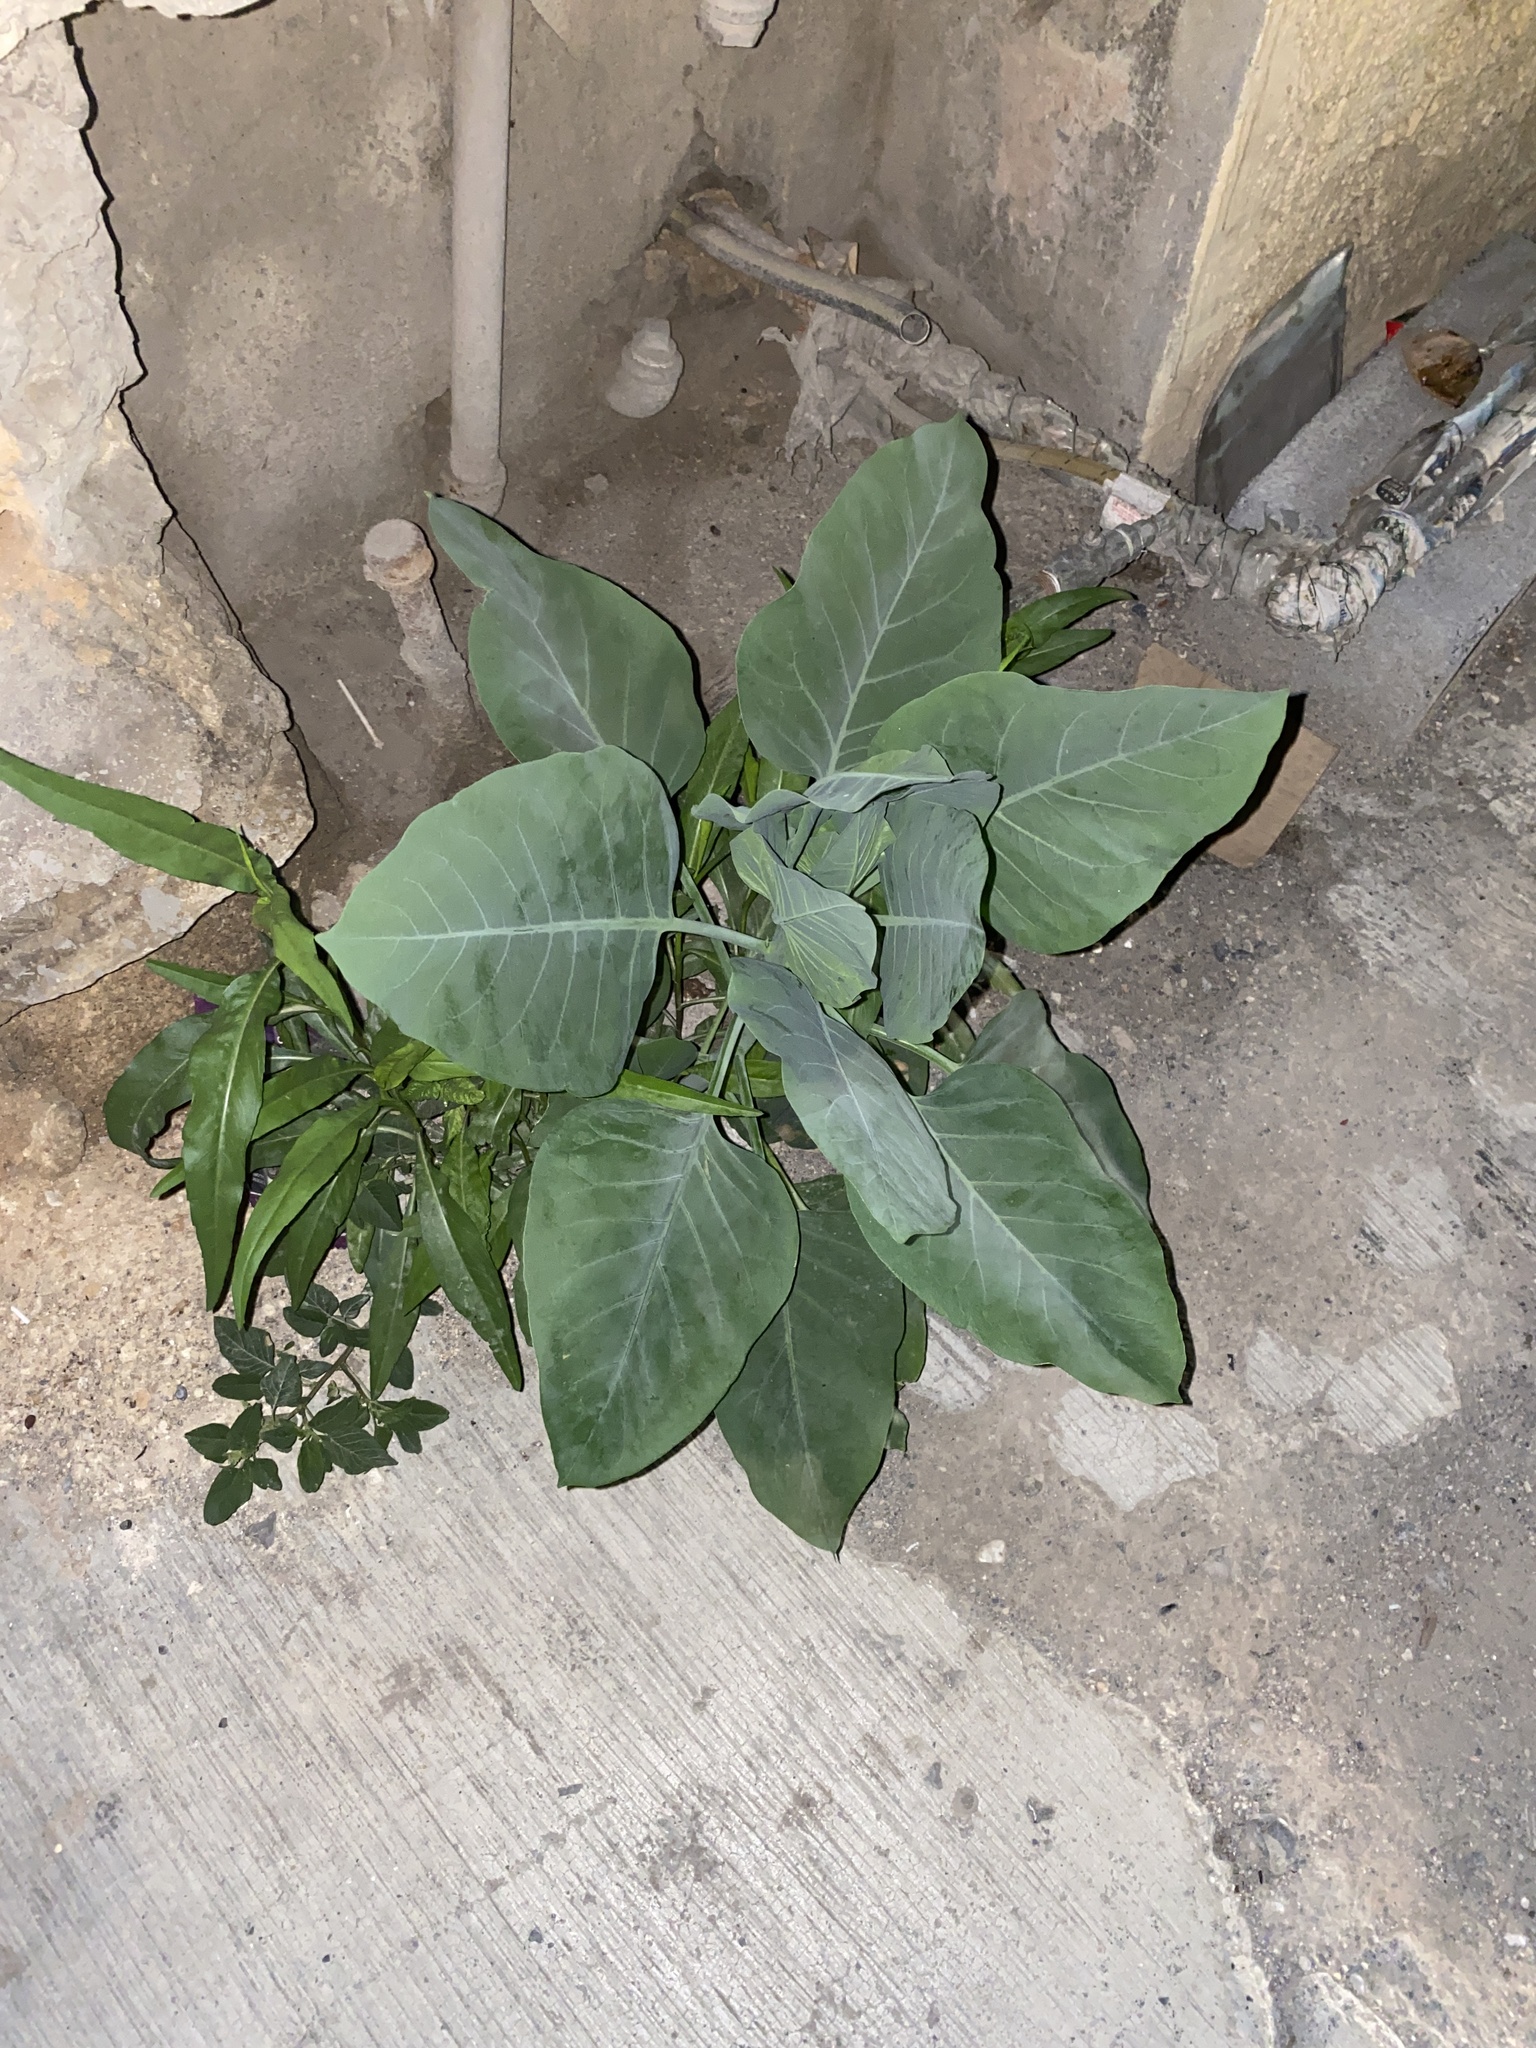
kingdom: Plantae
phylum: Tracheophyta
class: Magnoliopsida
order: Solanales
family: Solanaceae
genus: Nicotiana
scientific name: Nicotiana glauca
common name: Tree tobacco
